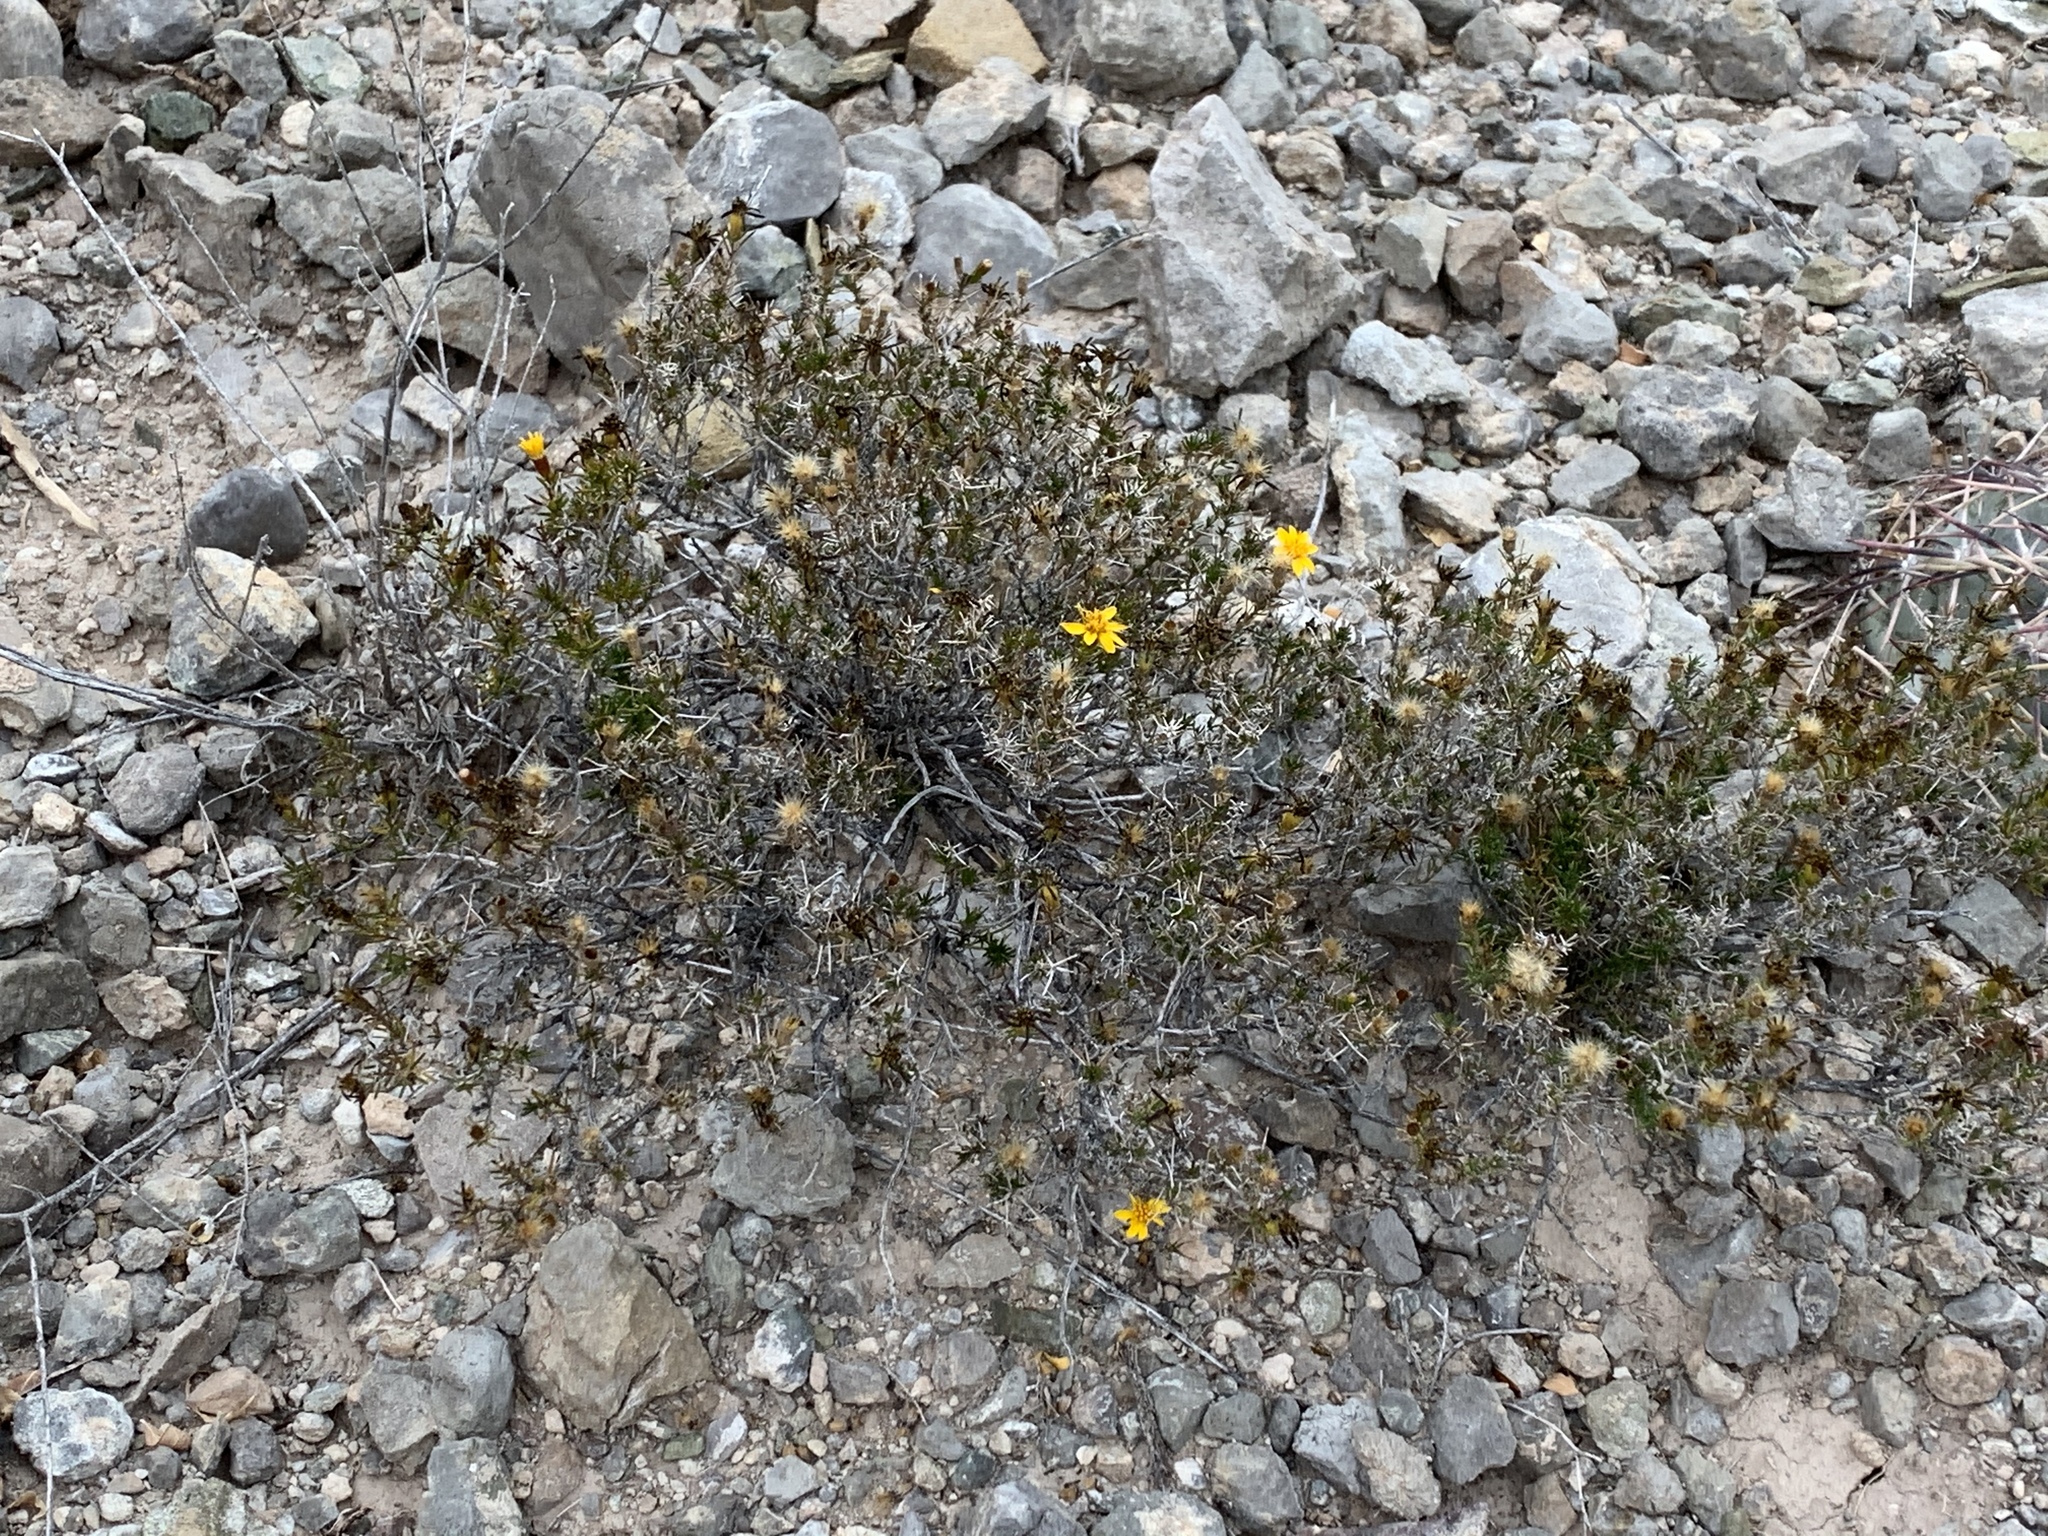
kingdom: Plantae
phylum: Tracheophyta
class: Magnoliopsida
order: Asterales
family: Asteraceae
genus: Thymophylla
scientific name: Thymophylla acerosa
